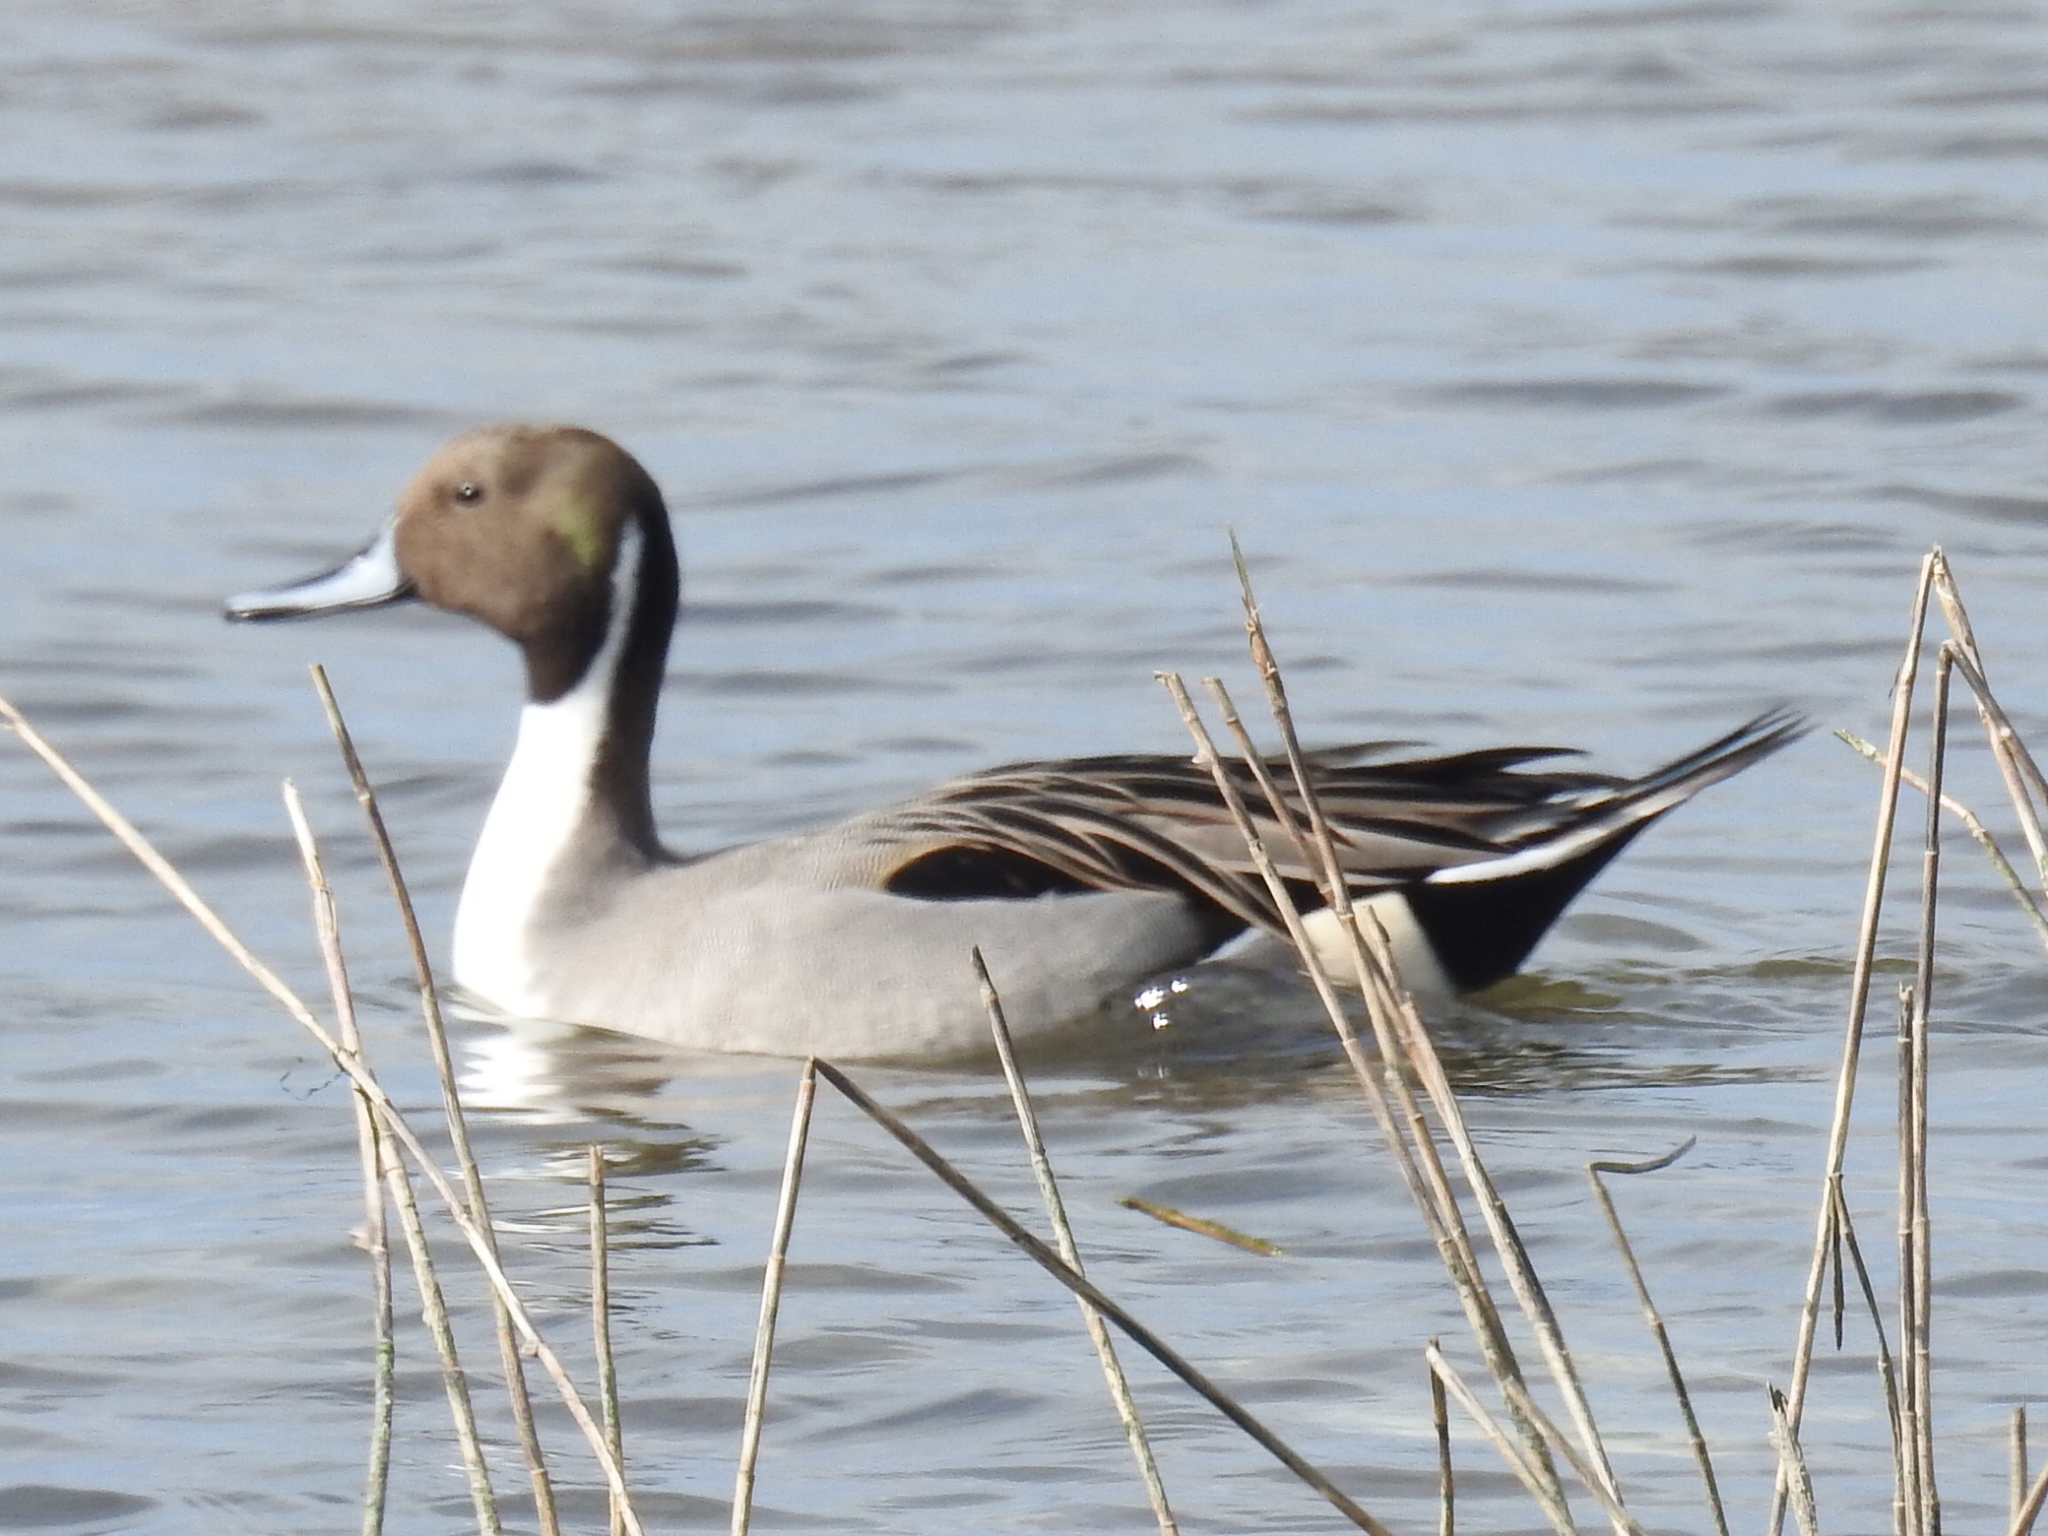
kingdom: Animalia
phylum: Chordata
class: Aves
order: Anseriformes
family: Anatidae
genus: Anas
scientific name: Anas acuta
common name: Northern pintail
